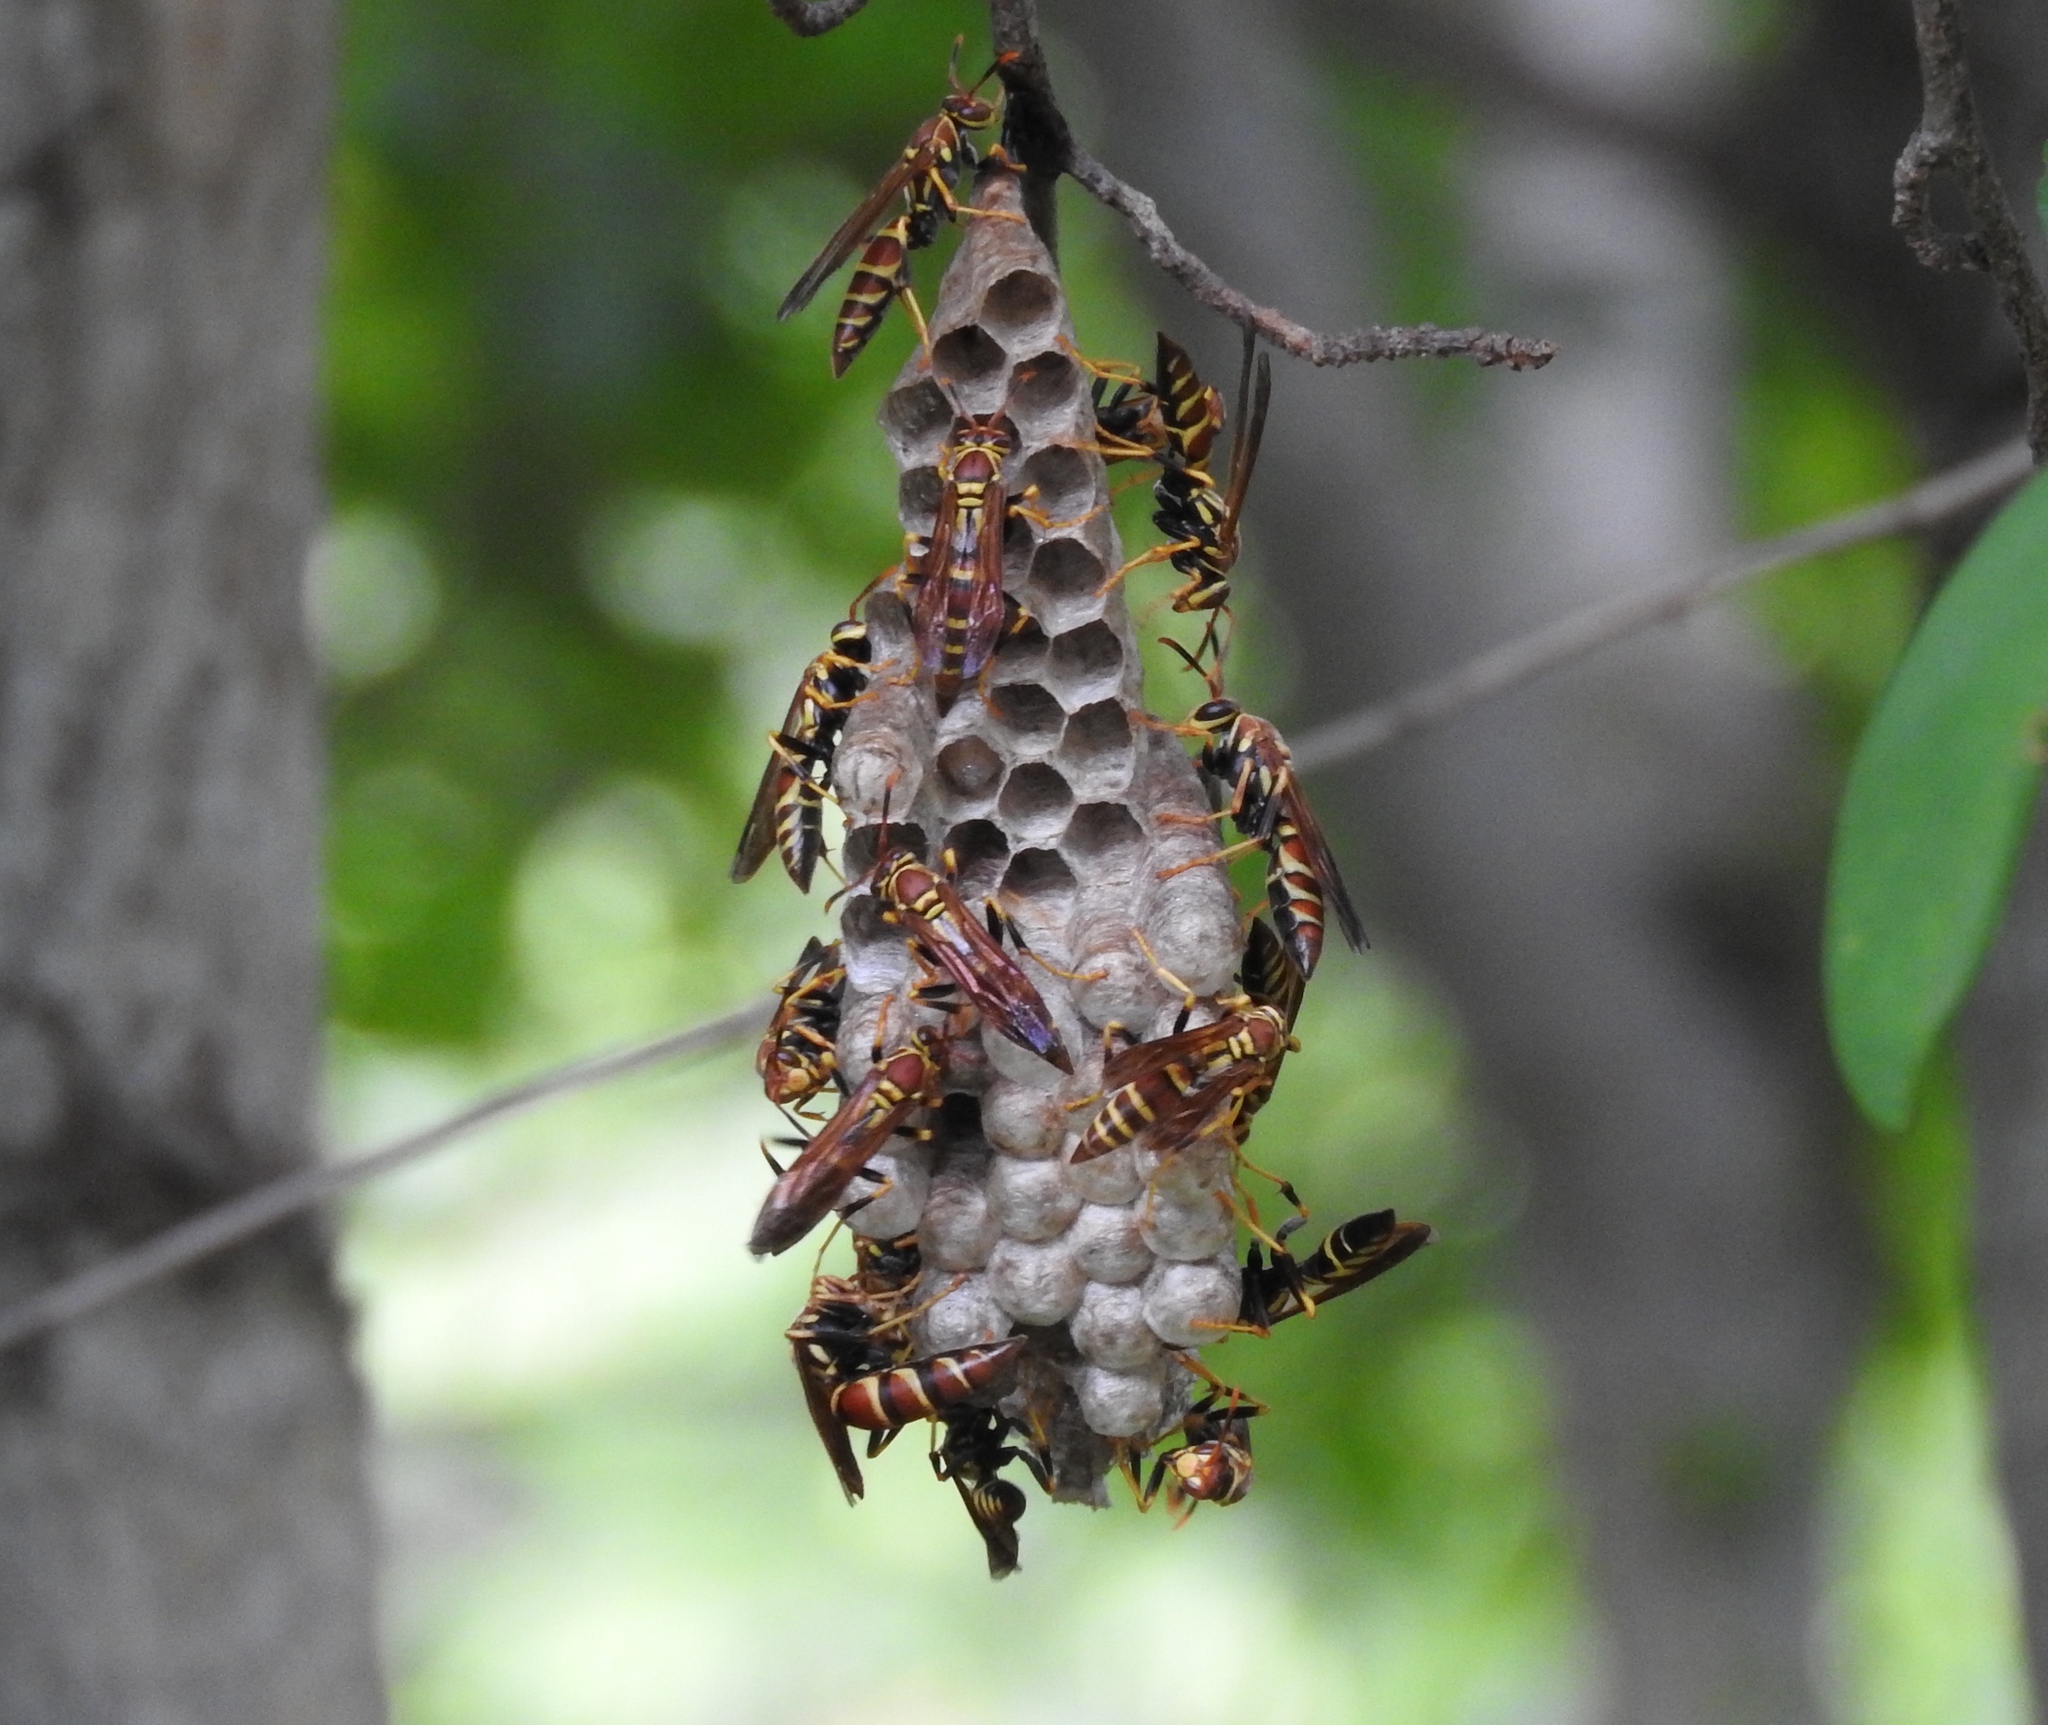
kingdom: Animalia
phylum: Arthropoda
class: Insecta
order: Hymenoptera
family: Eumenidae
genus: Polistes
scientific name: Polistes instabilis
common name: Unstable paper wasp
